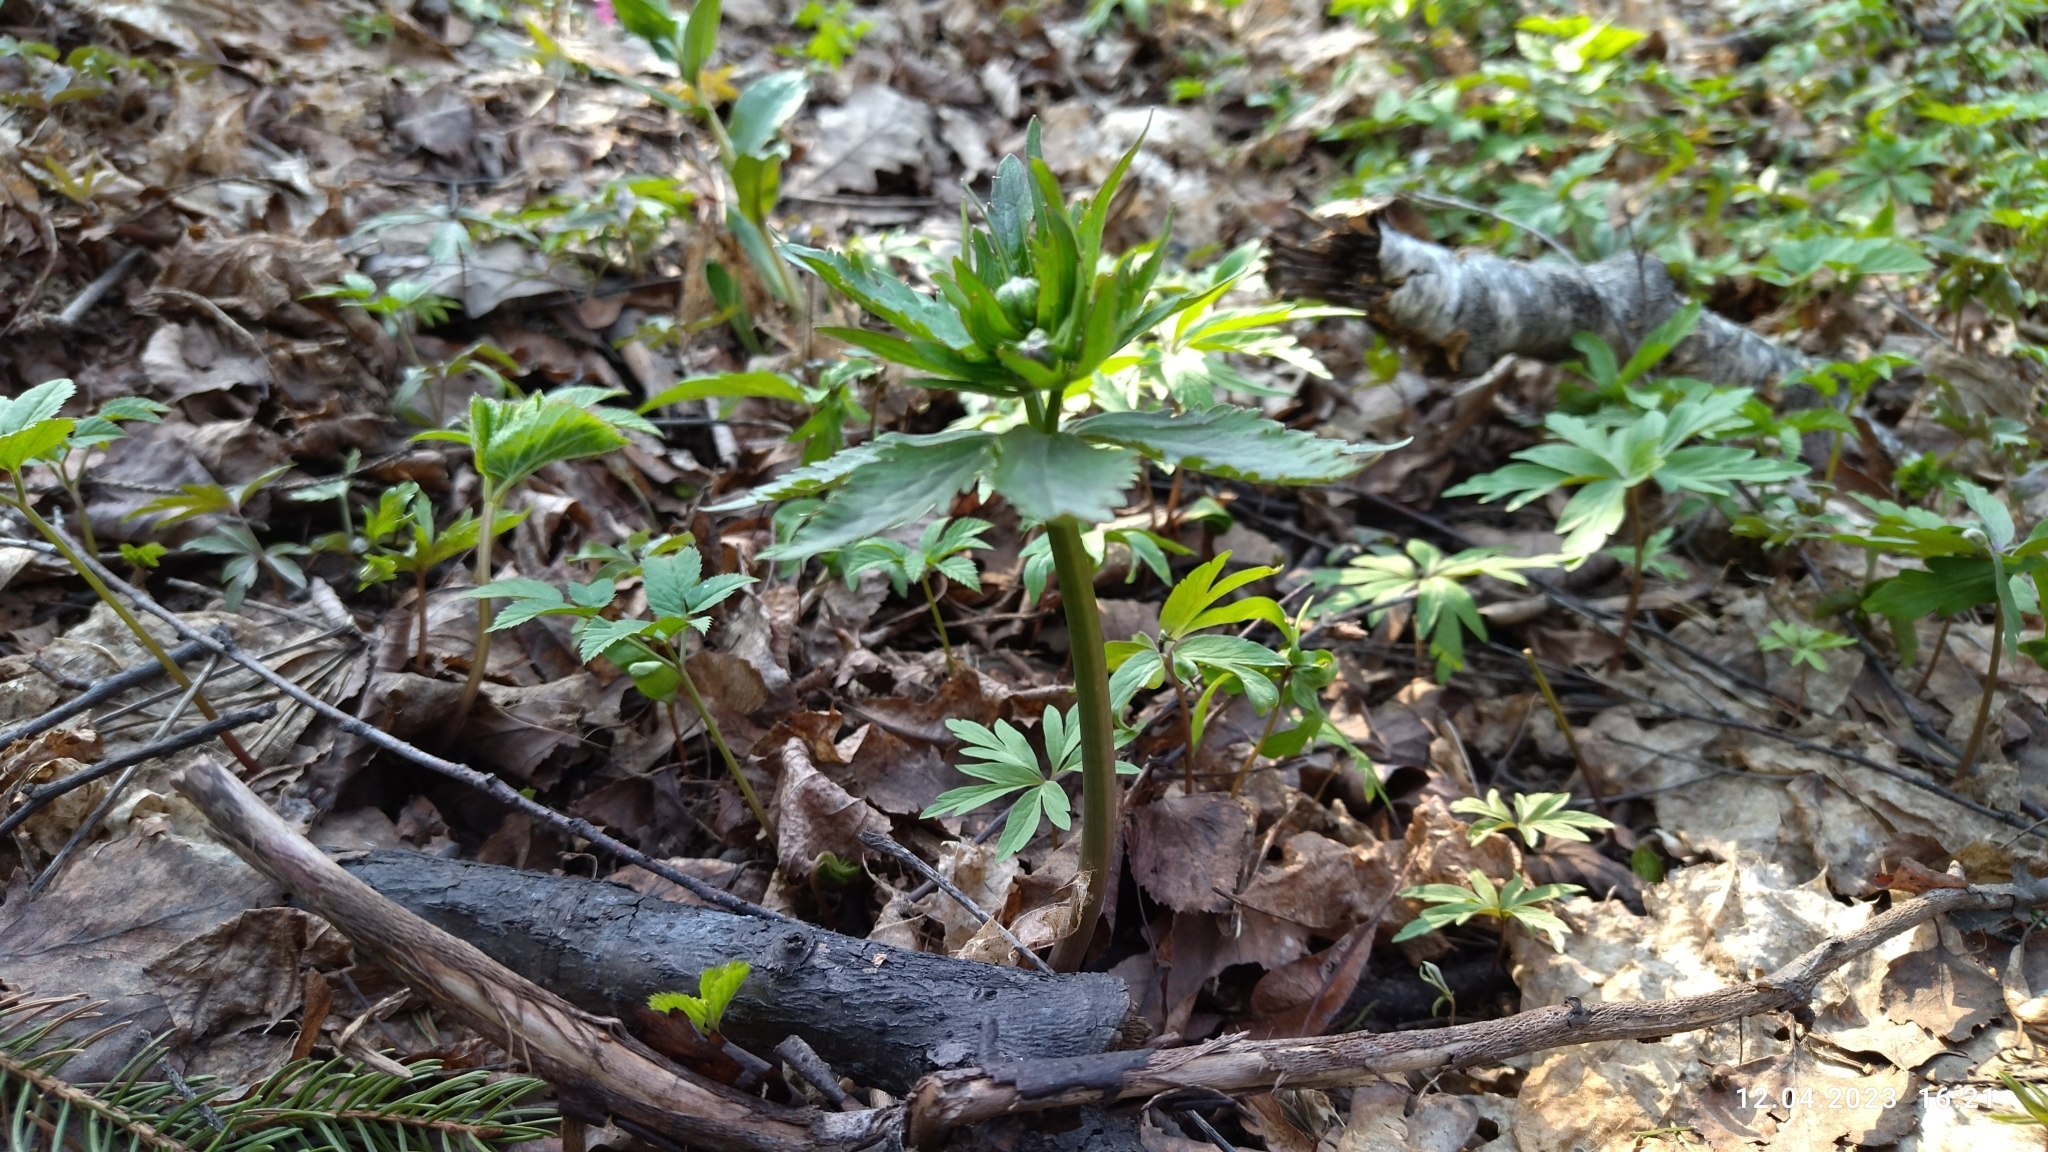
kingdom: Plantae
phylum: Tracheophyta
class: Magnoliopsida
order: Ranunculales
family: Ranunculaceae
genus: Ranunculus
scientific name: Ranunculus cassubicus
